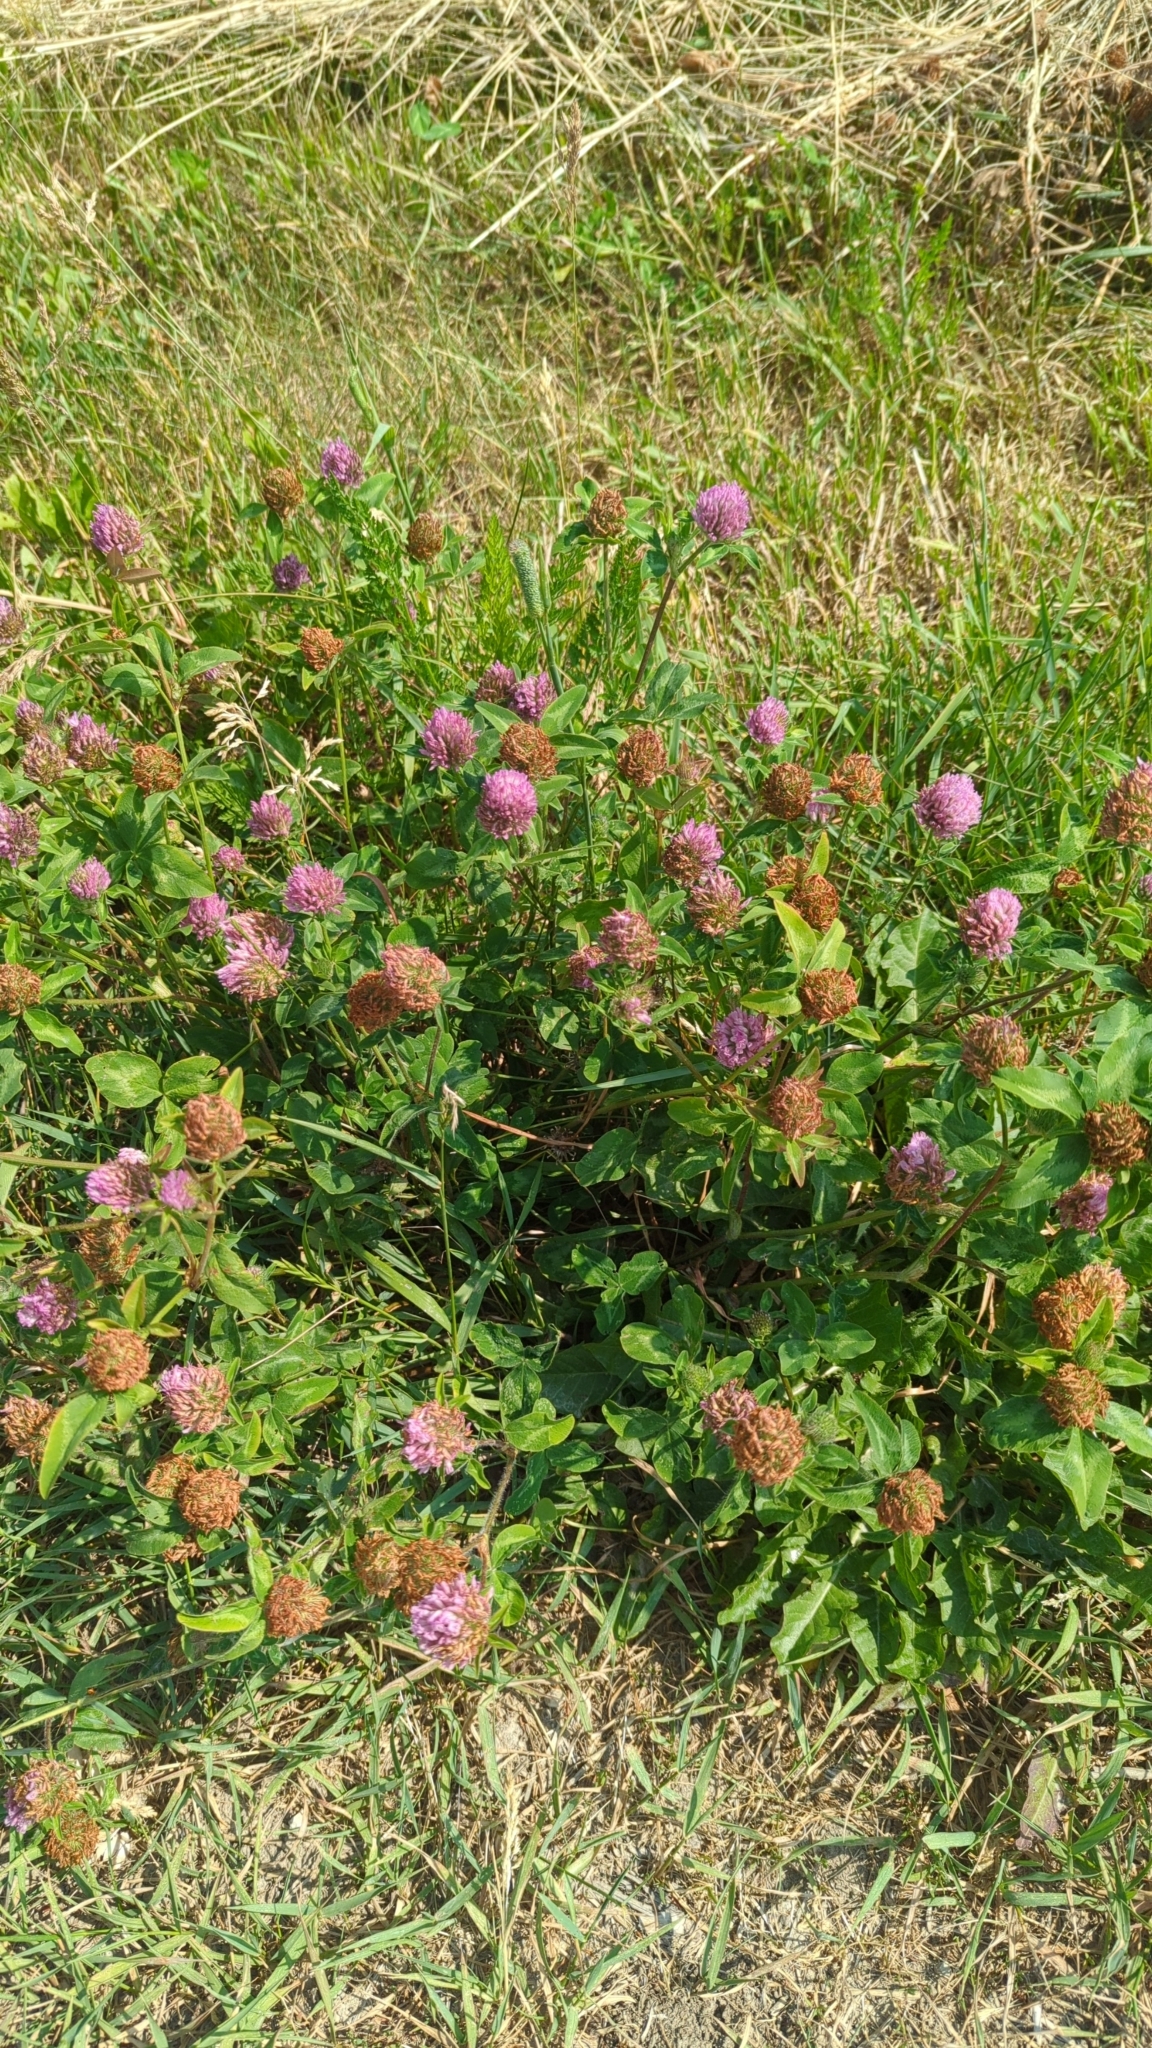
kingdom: Plantae
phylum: Tracheophyta
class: Magnoliopsida
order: Fabales
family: Fabaceae
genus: Trifolium
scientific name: Trifolium pratense
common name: Red clover
